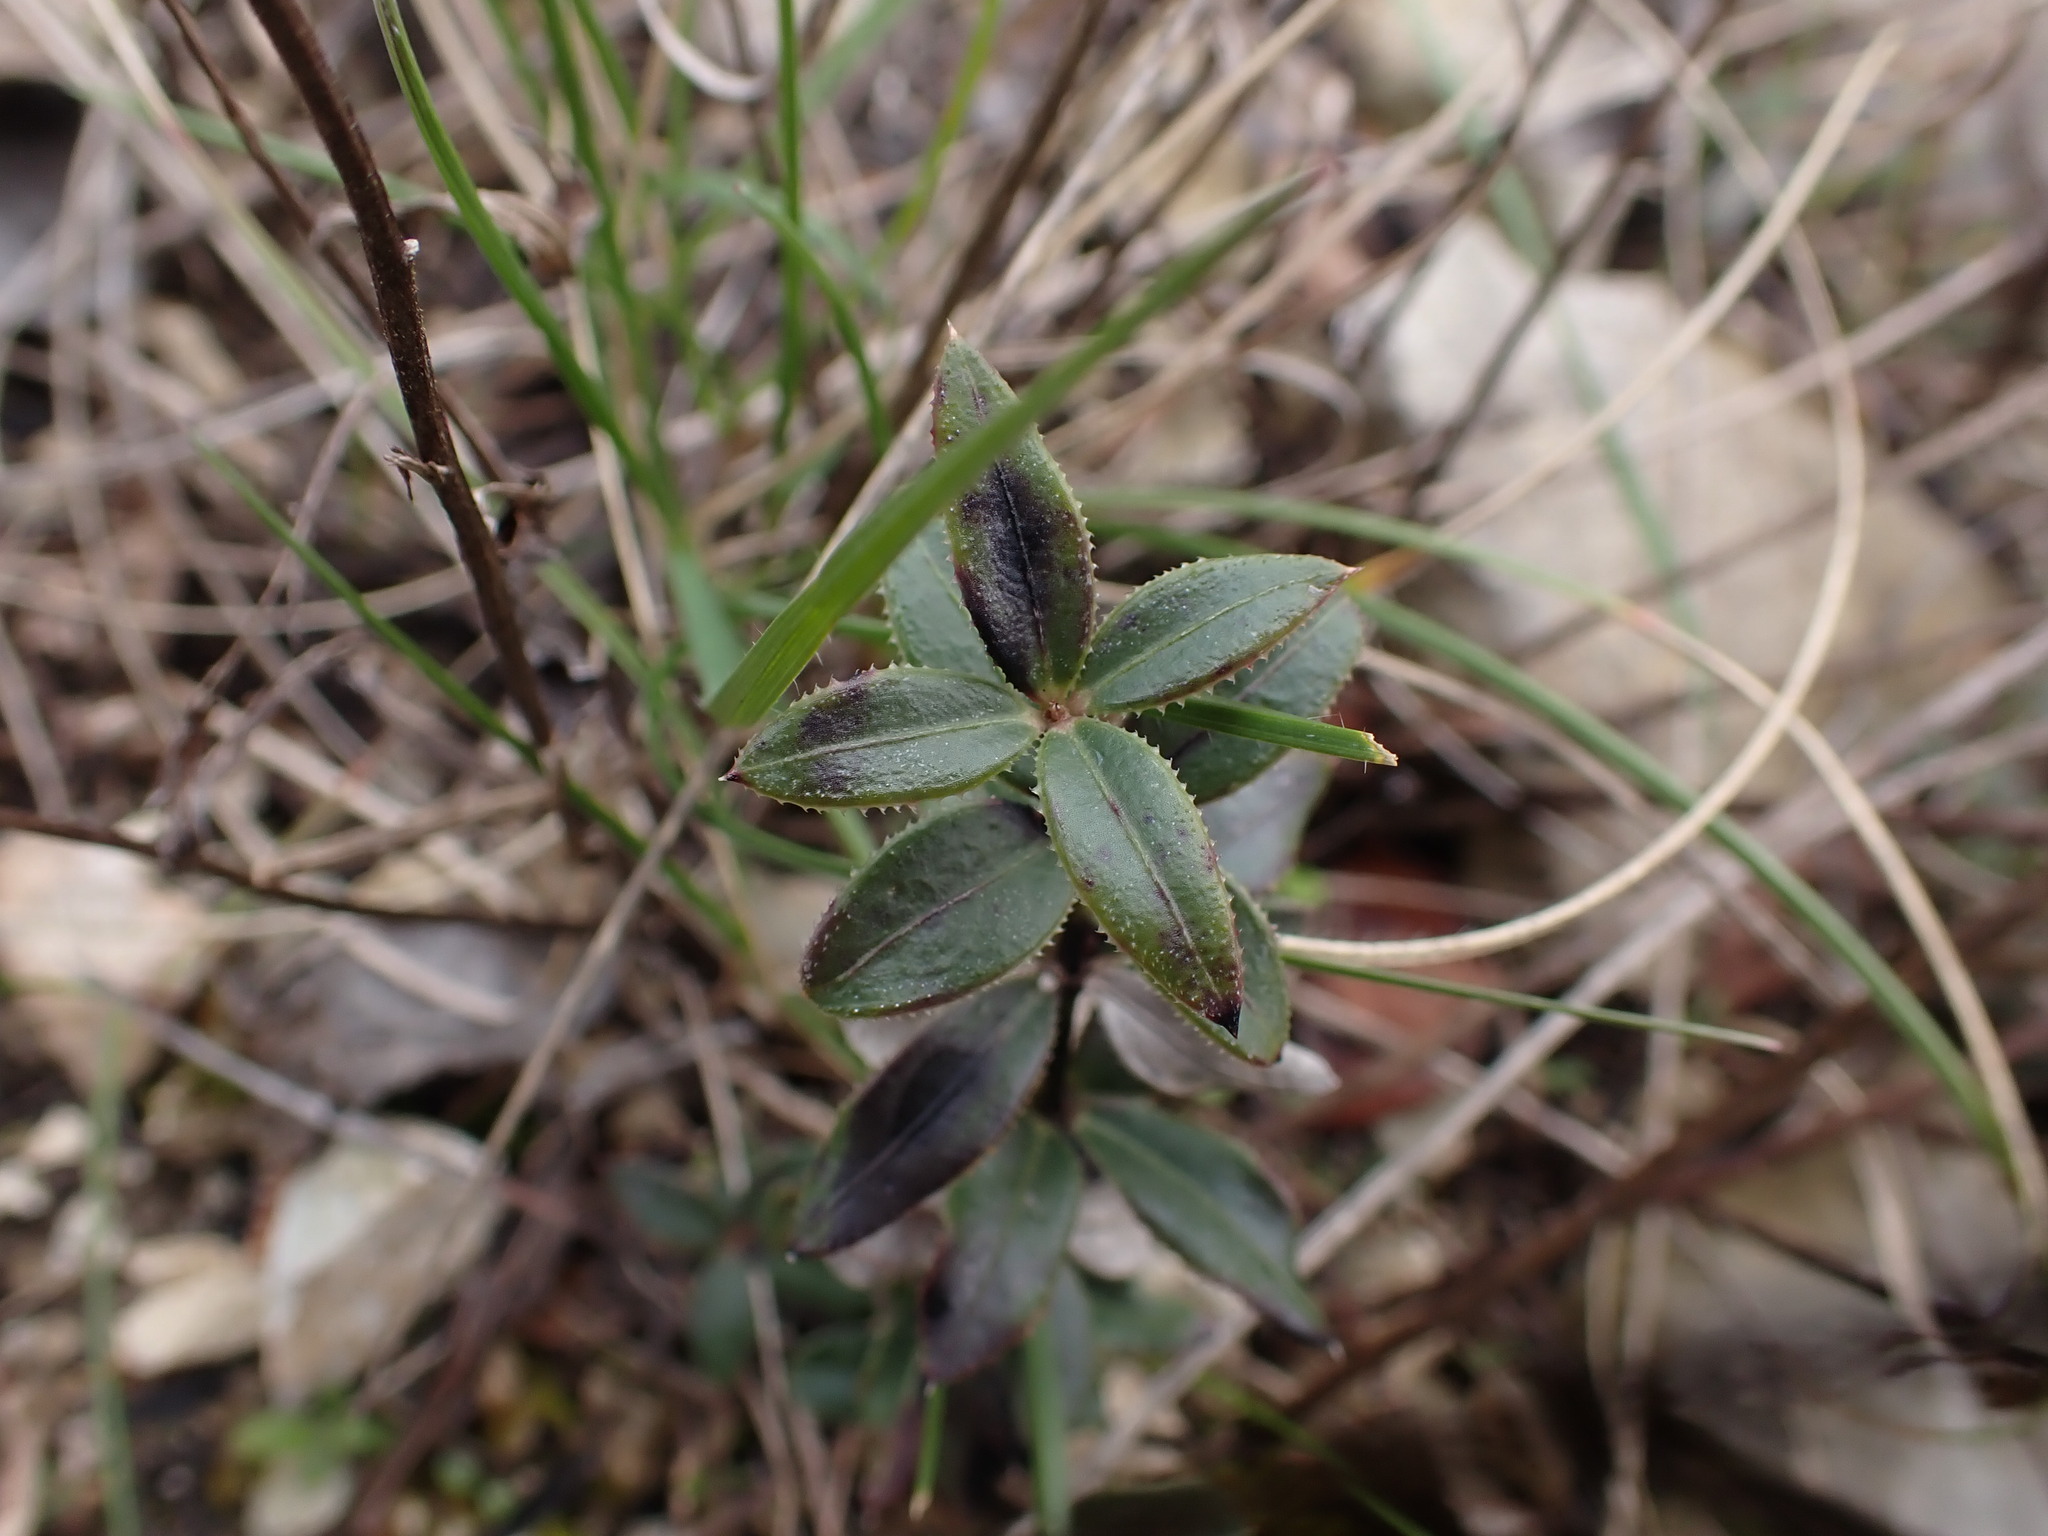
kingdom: Plantae
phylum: Tracheophyta
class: Magnoliopsida
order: Gentianales
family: Rubiaceae
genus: Rubia
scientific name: Rubia peregrina
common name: Wild madder
